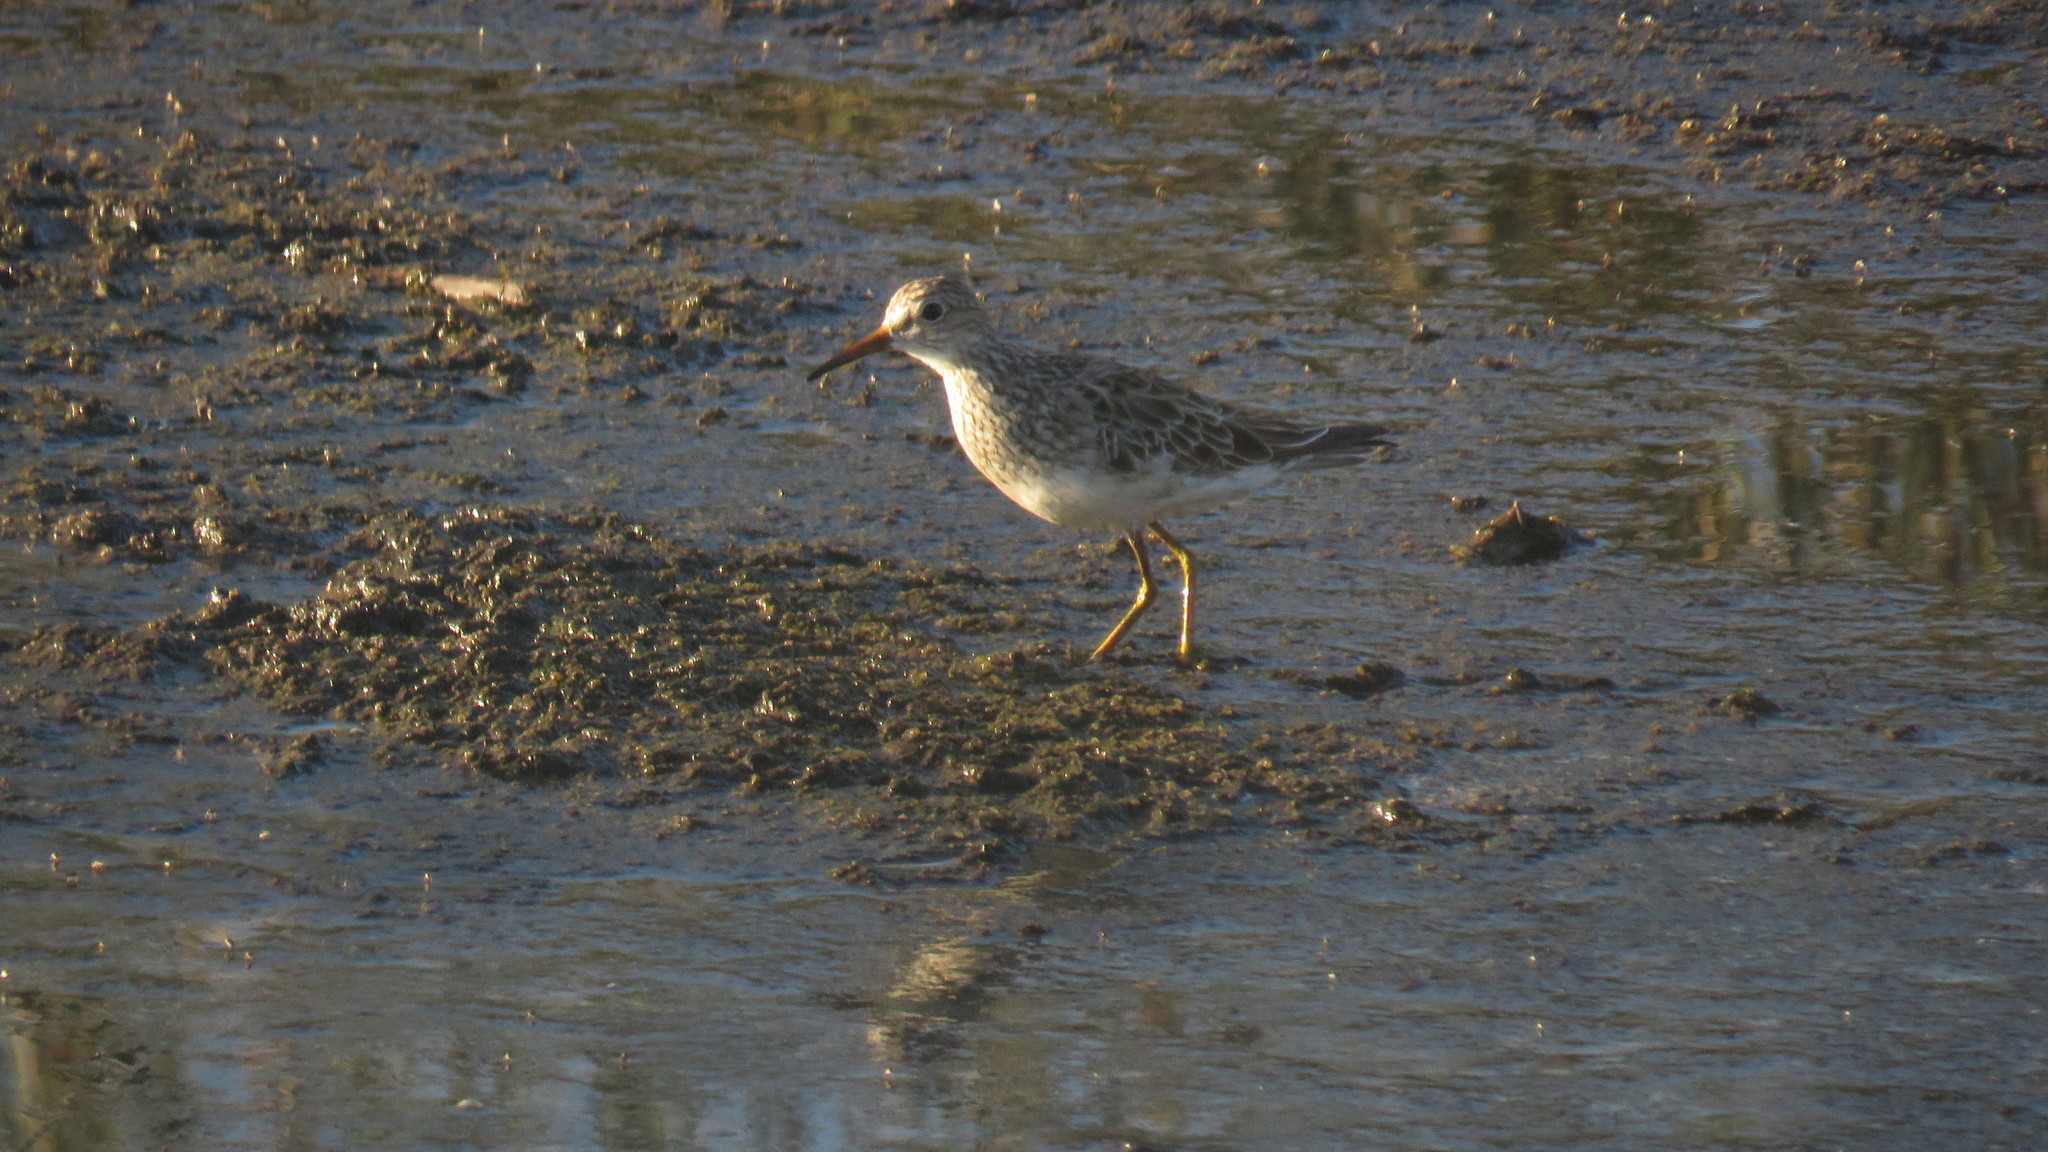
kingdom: Animalia
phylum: Chordata
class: Aves
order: Charadriiformes
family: Scolopacidae
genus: Calidris
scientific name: Calidris melanotos
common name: Pectoral sandpiper
